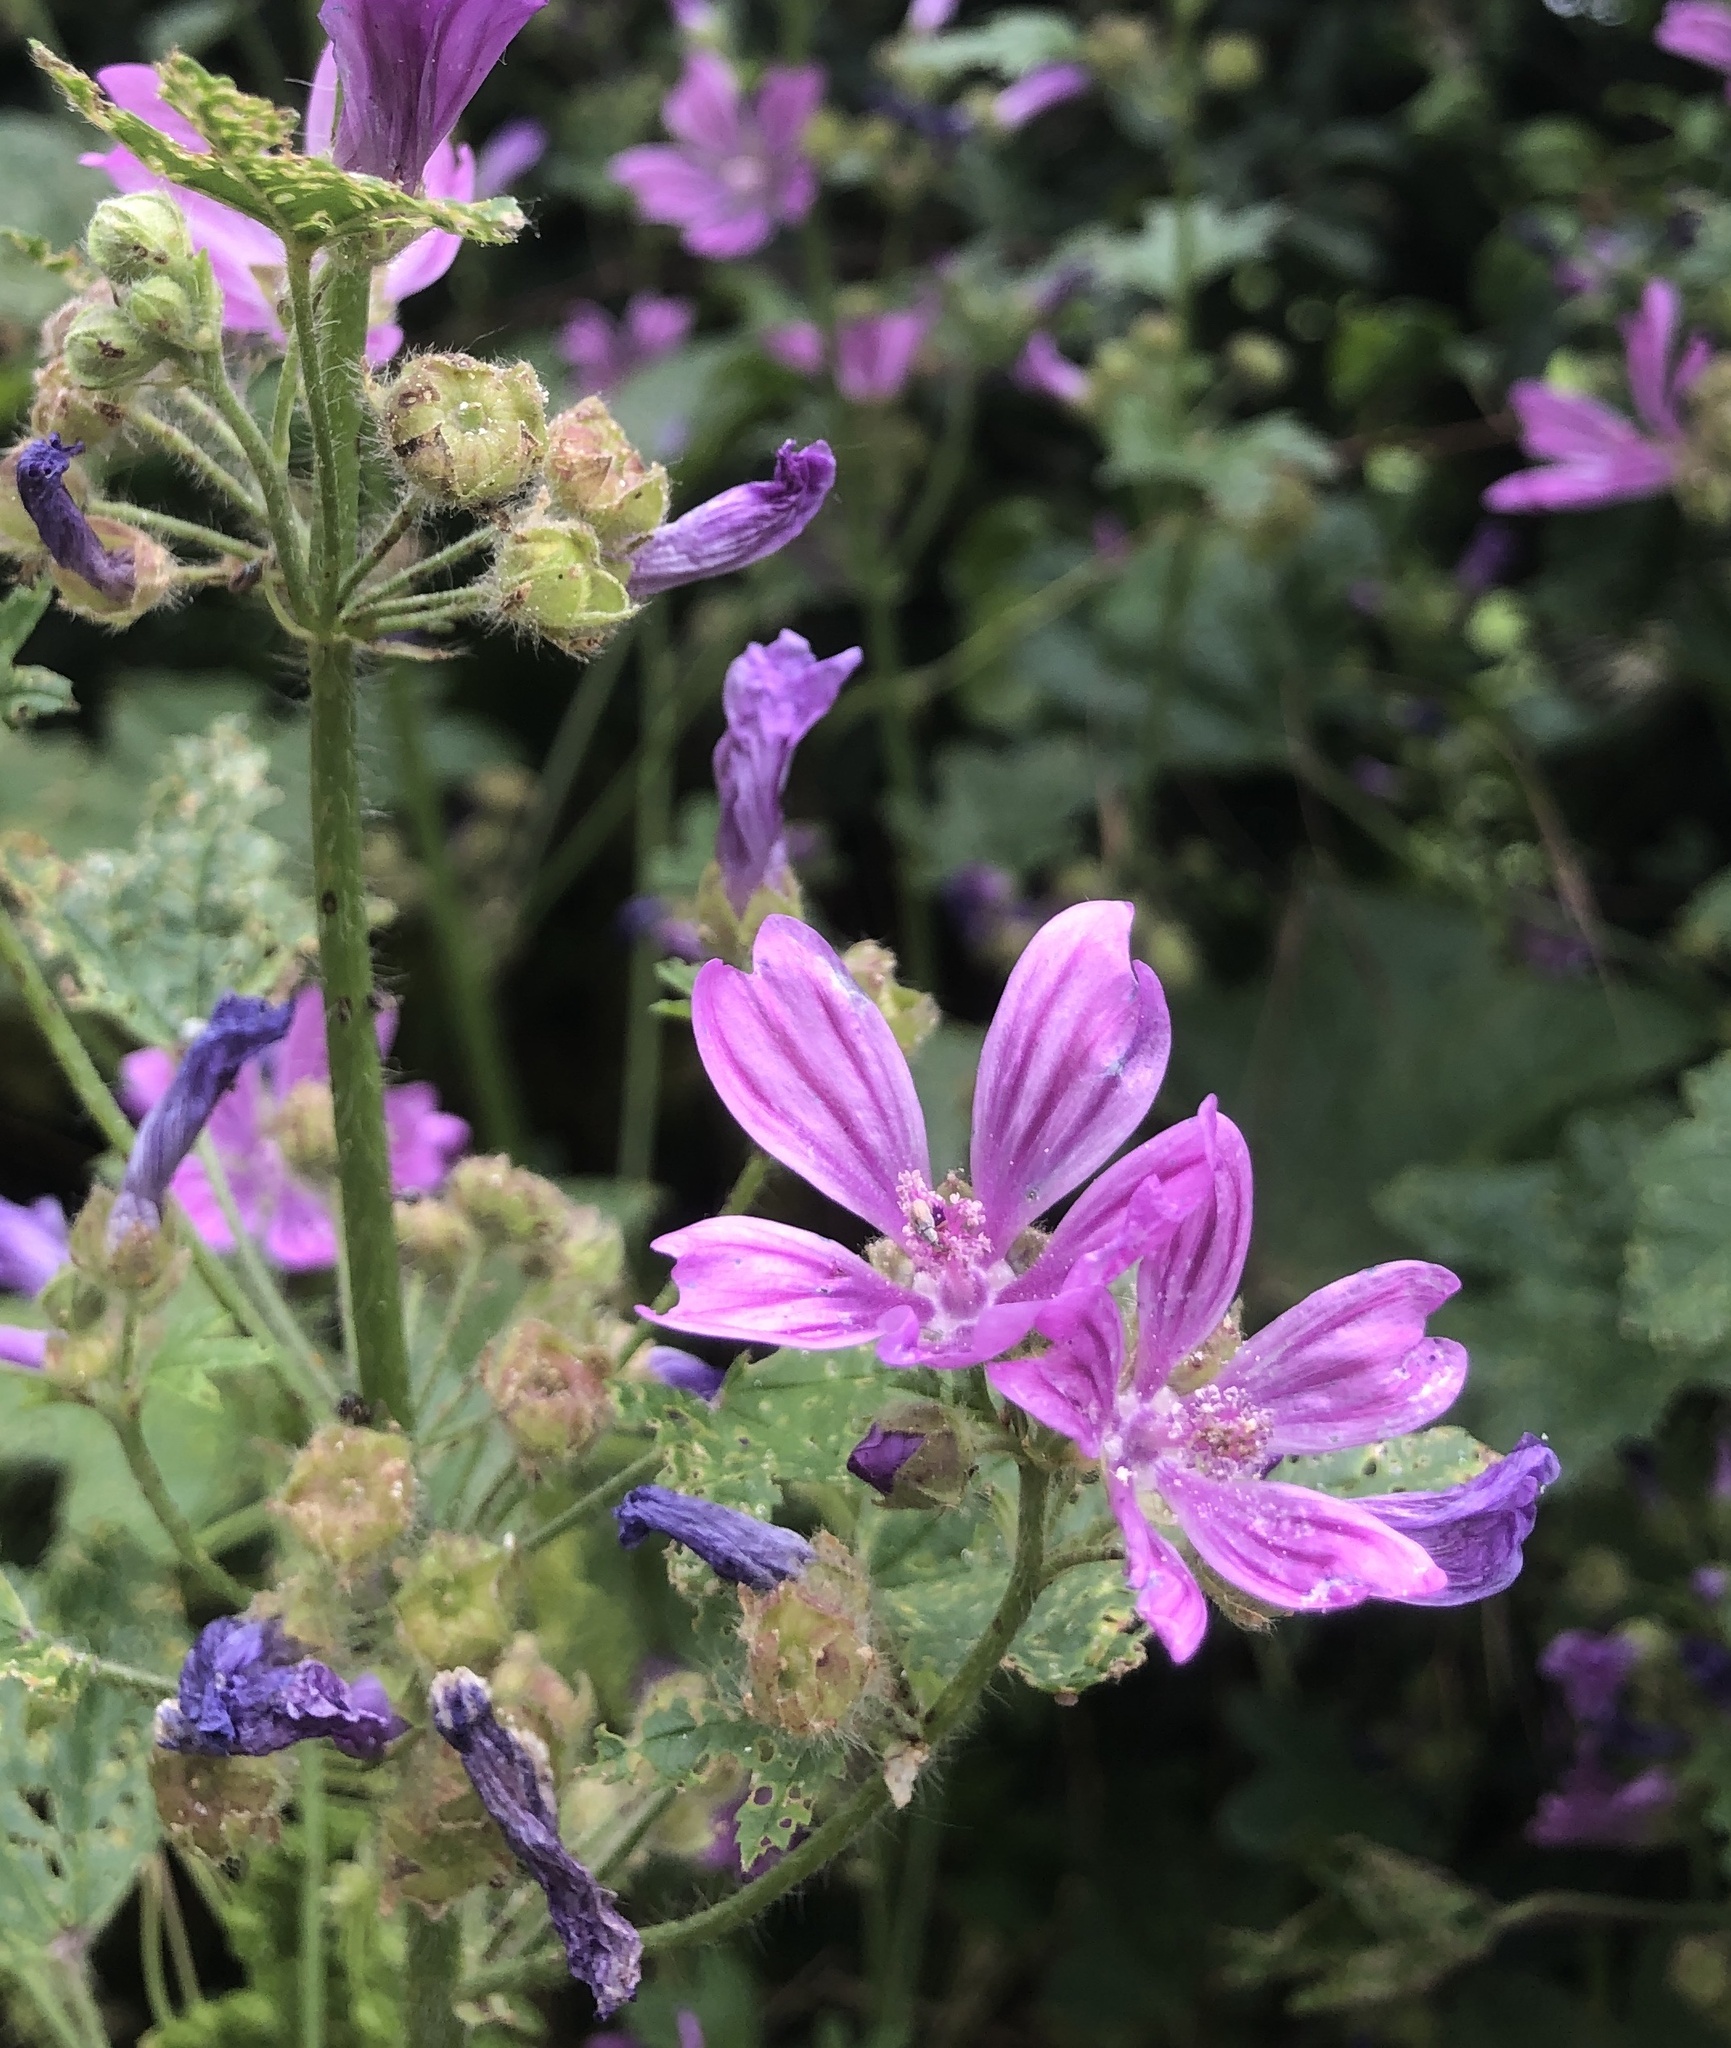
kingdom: Plantae
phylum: Tracheophyta
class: Magnoliopsida
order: Malvales
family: Malvaceae
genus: Malva
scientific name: Malva sylvestris
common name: Common mallow
